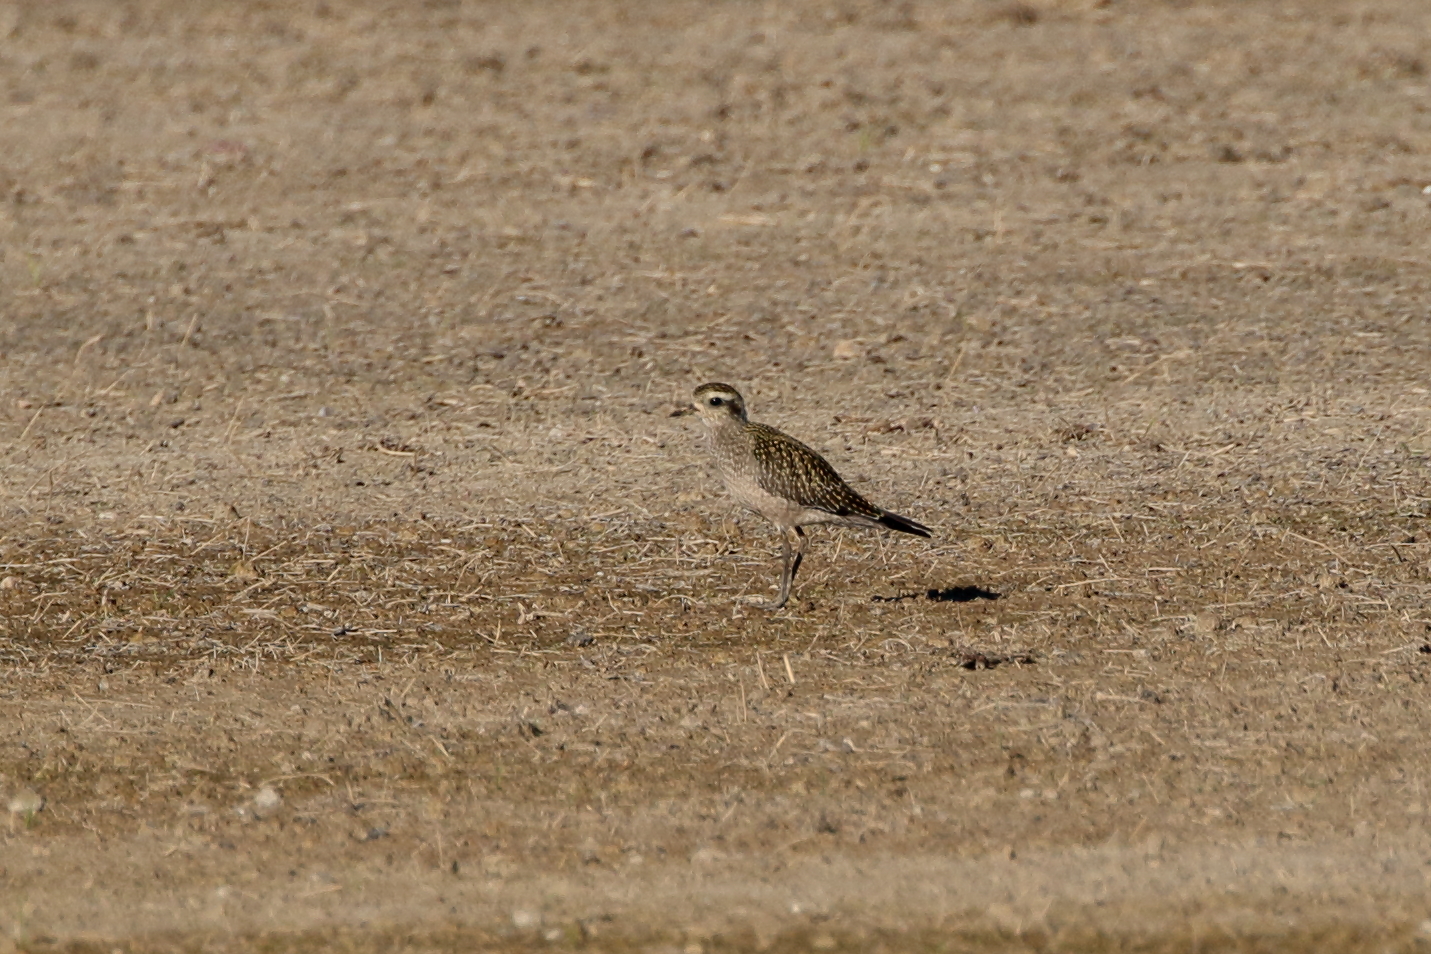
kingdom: Animalia
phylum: Chordata
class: Aves
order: Charadriiformes
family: Charadriidae
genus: Pluvialis
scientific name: Pluvialis dominica
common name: American golden plover
